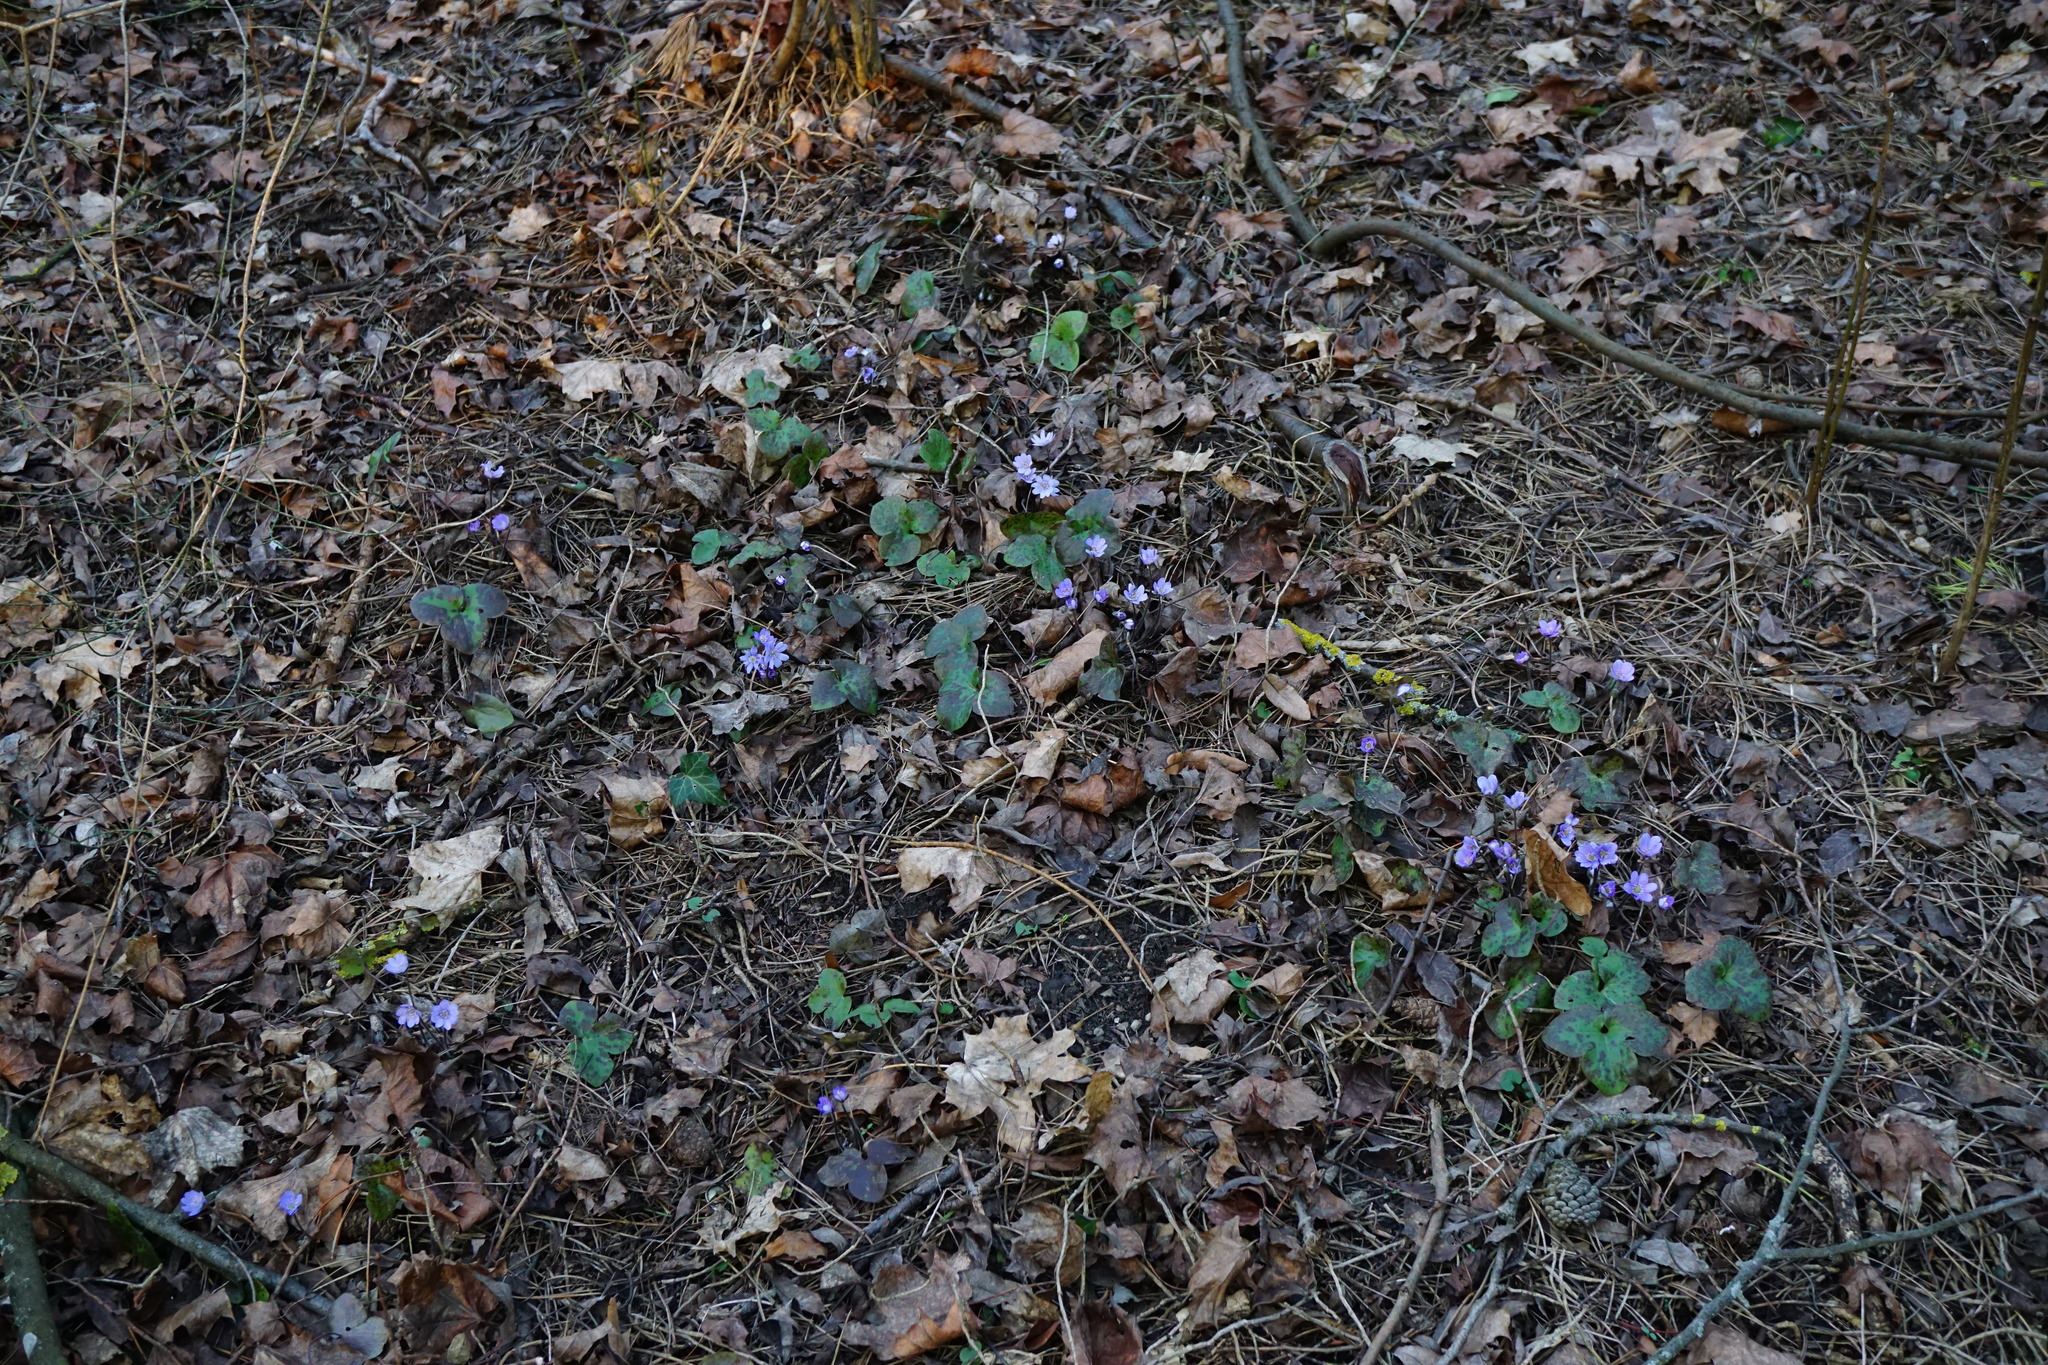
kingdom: Plantae
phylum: Tracheophyta
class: Magnoliopsida
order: Ranunculales
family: Ranunculaceae
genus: Hepatica
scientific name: Hepatica nobilis
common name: Liverleaf
